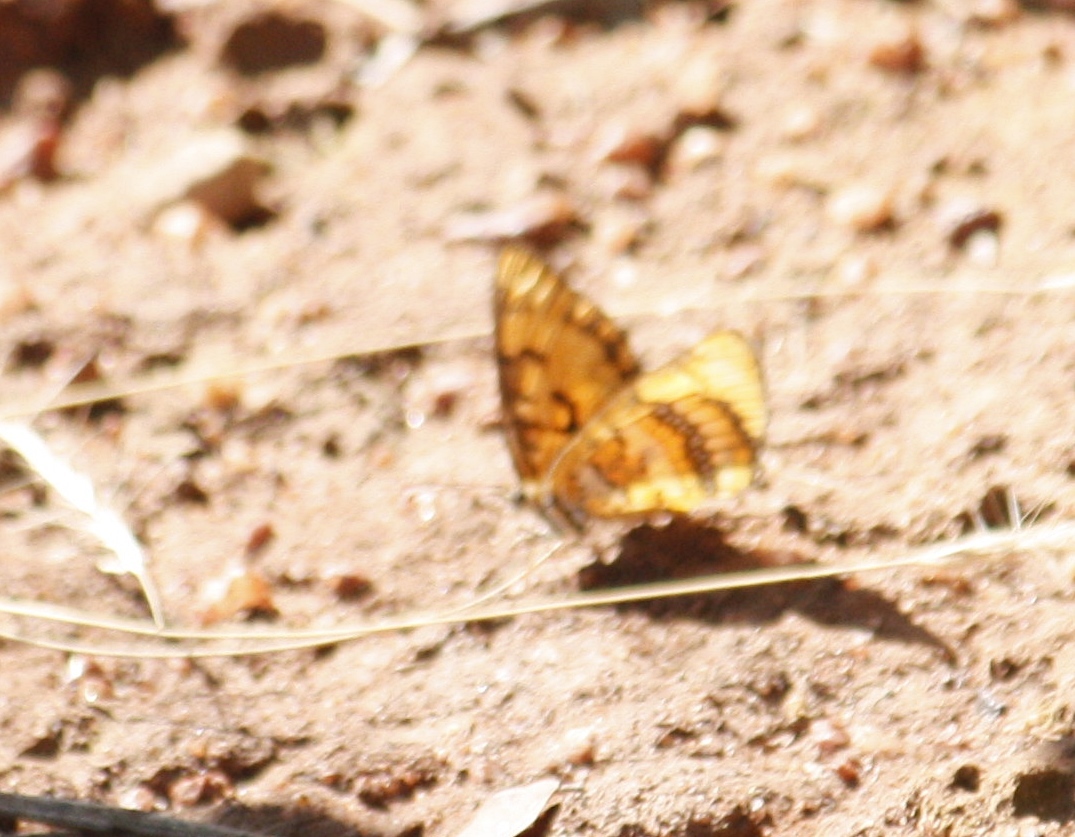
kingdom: Animalia
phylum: Arthropoda
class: Insecta
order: Lepidoptera
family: Nymphalidae
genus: Byblia
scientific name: Byblia ilithyia
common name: Spotted joker
